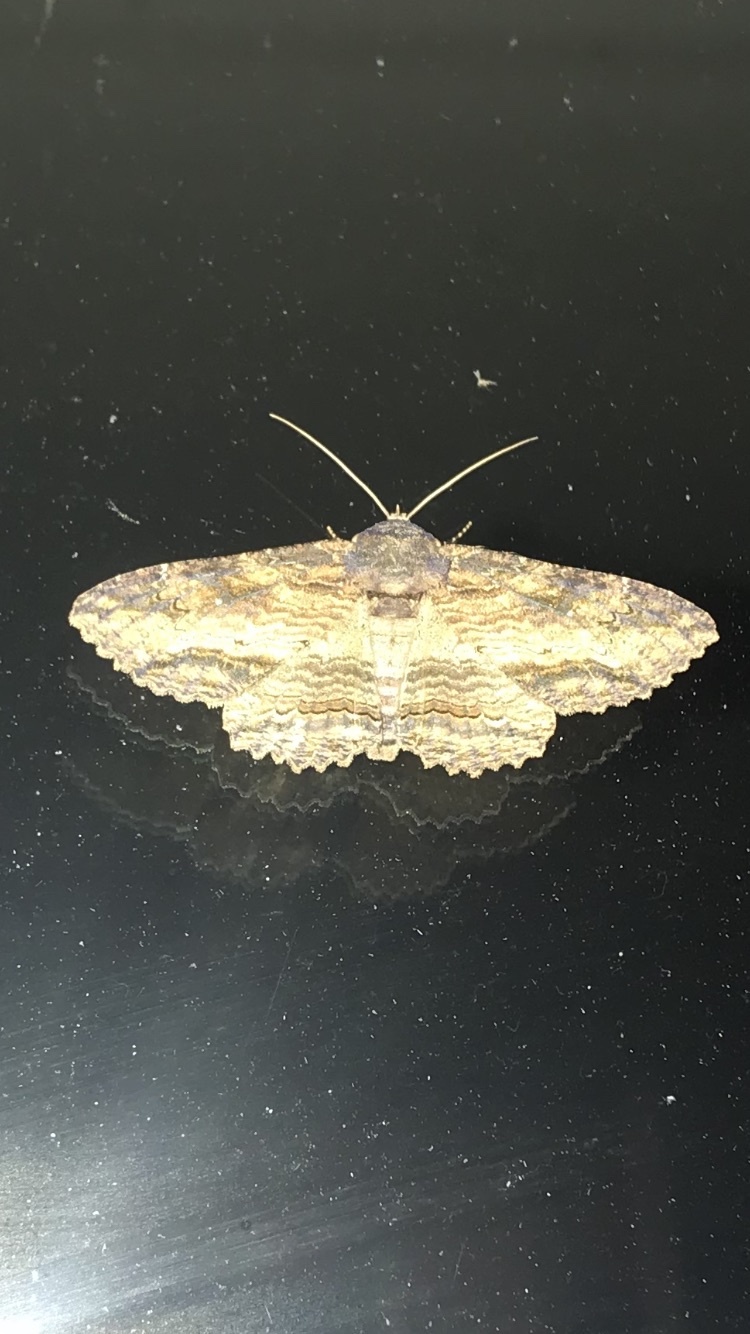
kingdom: Animalia
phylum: Arthropoda
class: Insecta
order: Lepidoptera
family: Erebidae
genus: Zale
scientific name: Zale lunata
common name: Lunate zale moth
